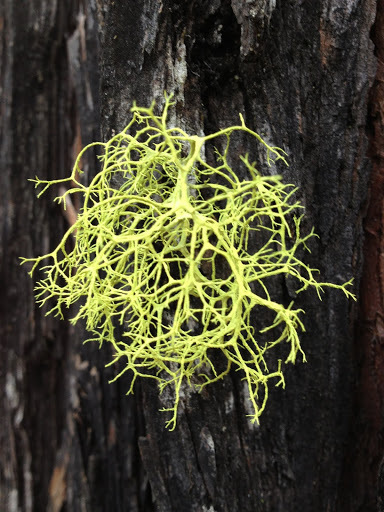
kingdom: Fungi
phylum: Ascomycota
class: Lecanoromycetes
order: Lecanorales
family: Parmeliaceae
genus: Letharia
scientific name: Letharia vulpina
